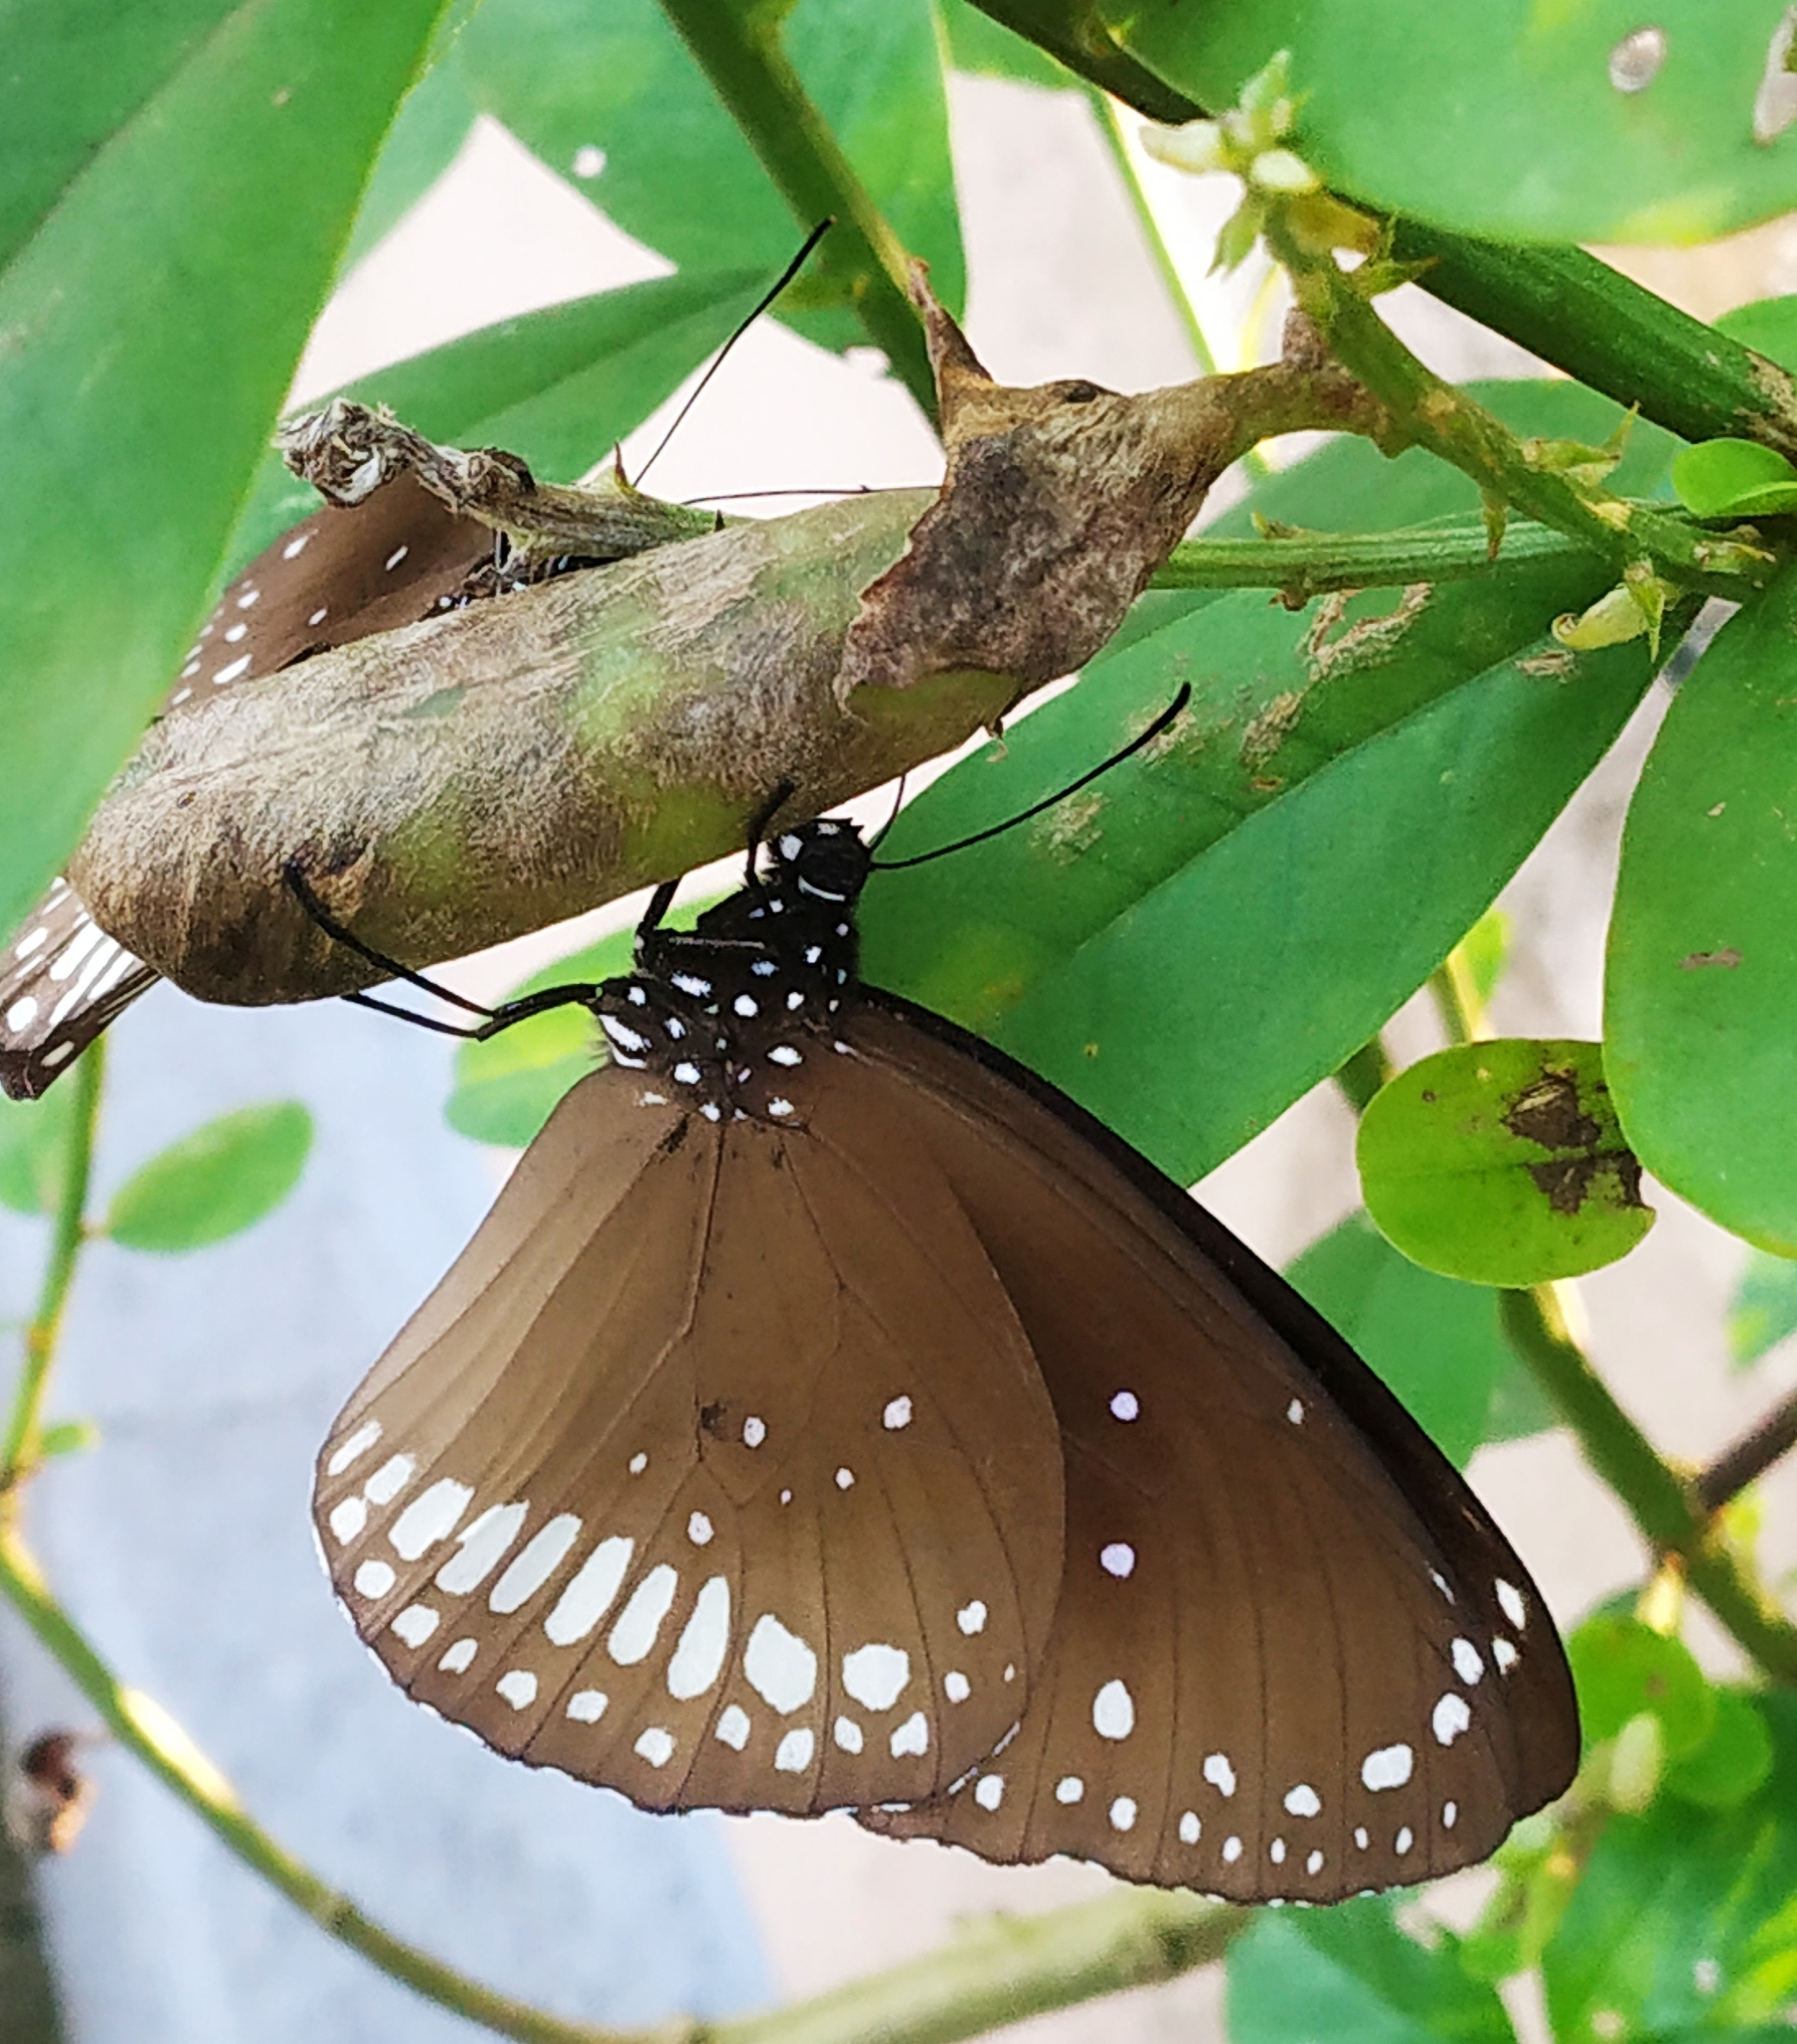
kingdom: Animalia
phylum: Arthropoda
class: Insecta
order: Lepidoptera
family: Nymphalidae
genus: Euploea
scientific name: Euploea core
